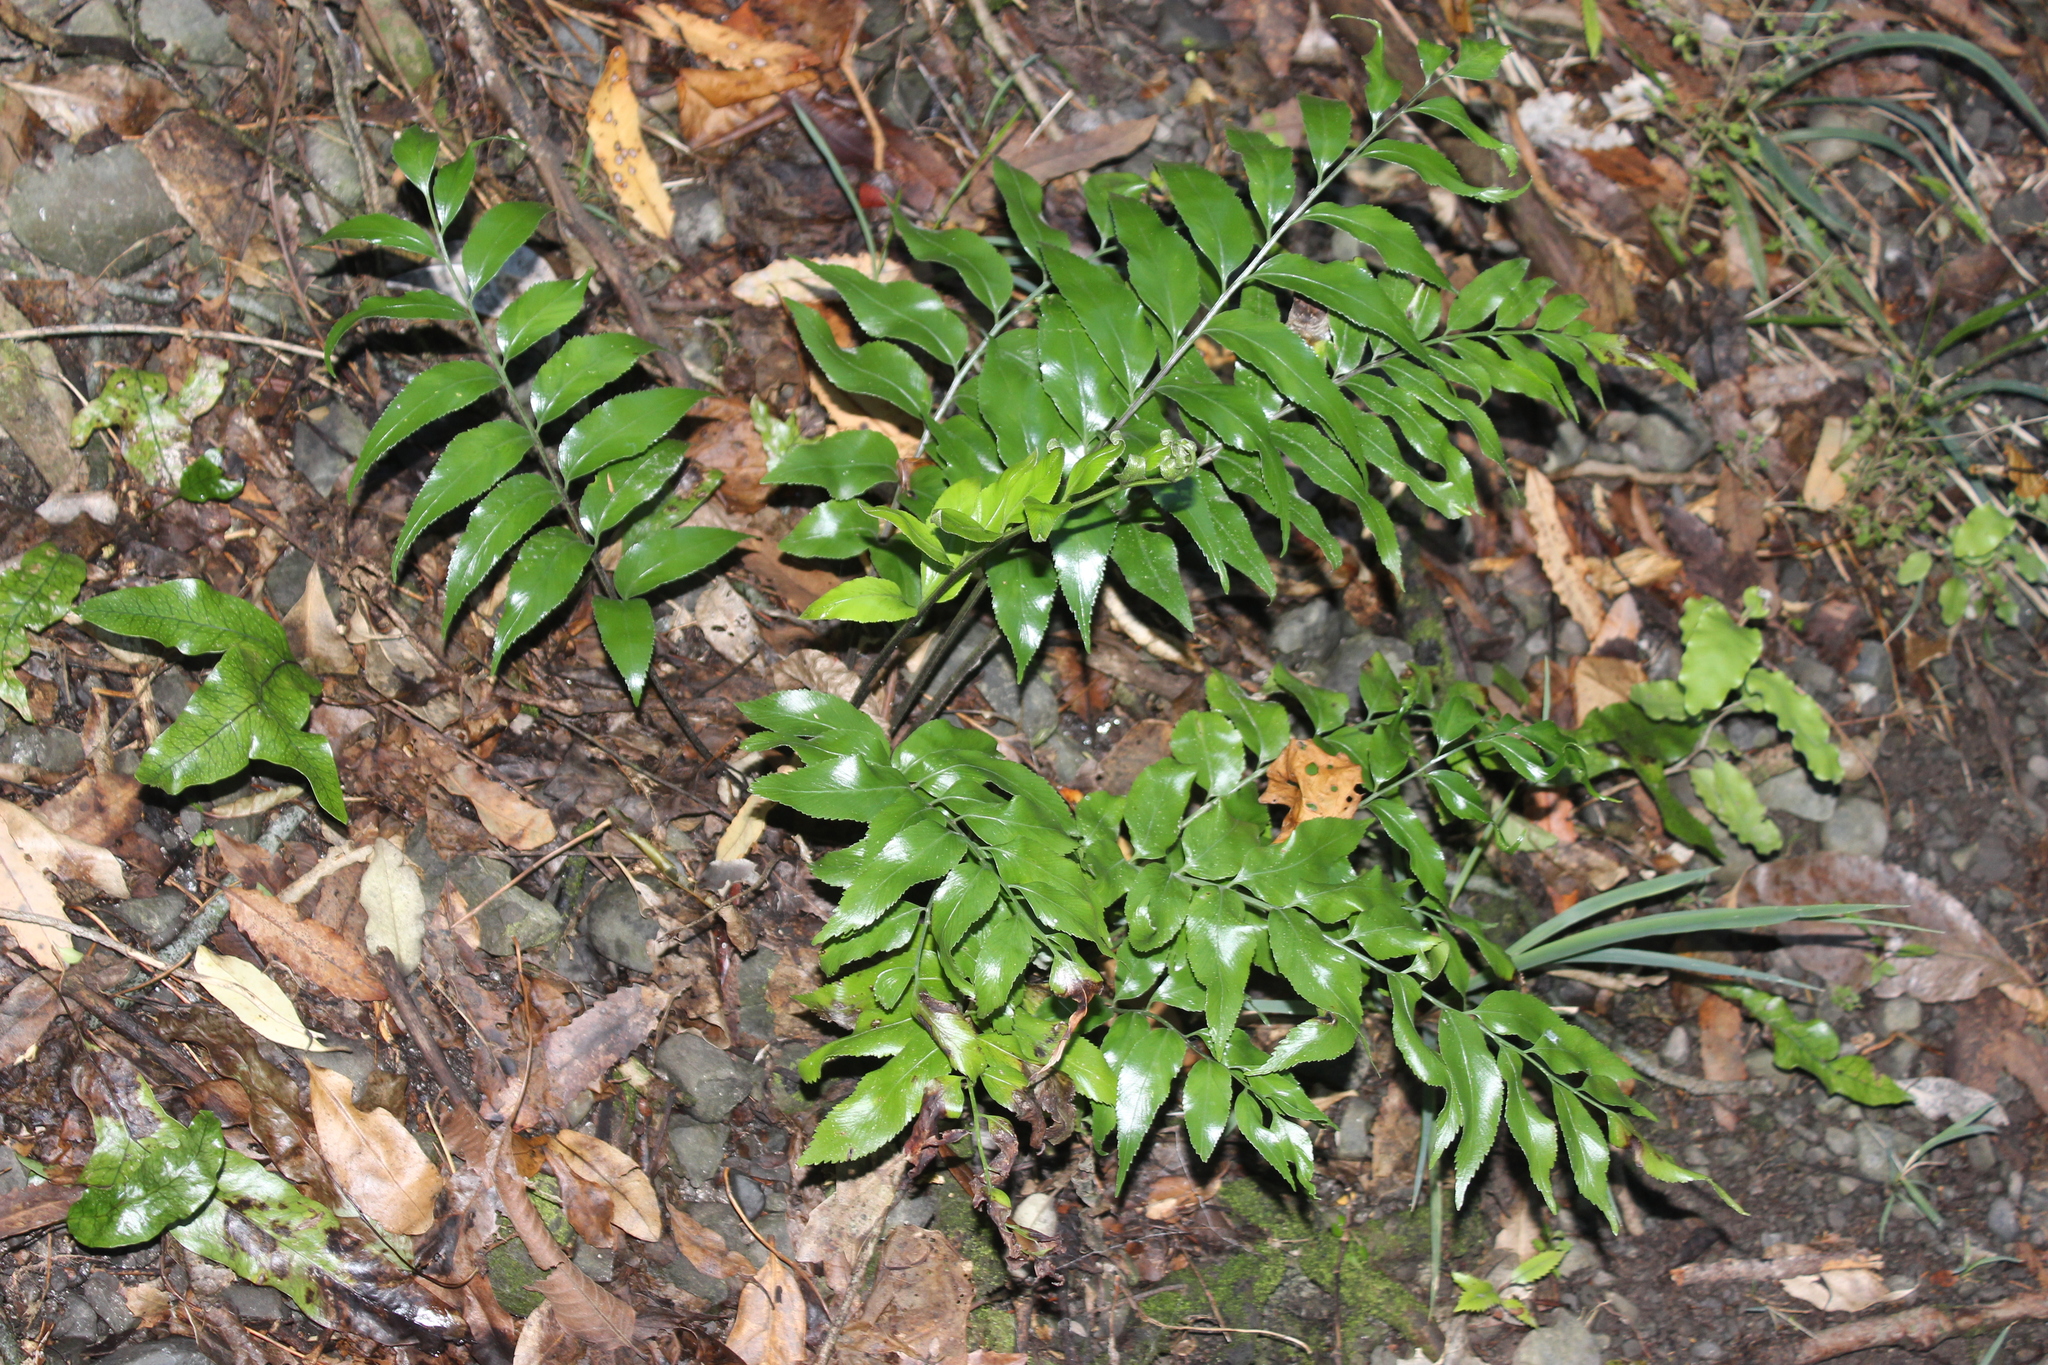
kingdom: Plantae
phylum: Tracheophyta
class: Polypodiopsida
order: Polypodiales
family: Aspleniaceae
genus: Asplenium
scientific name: Asplenium oblongifolium
